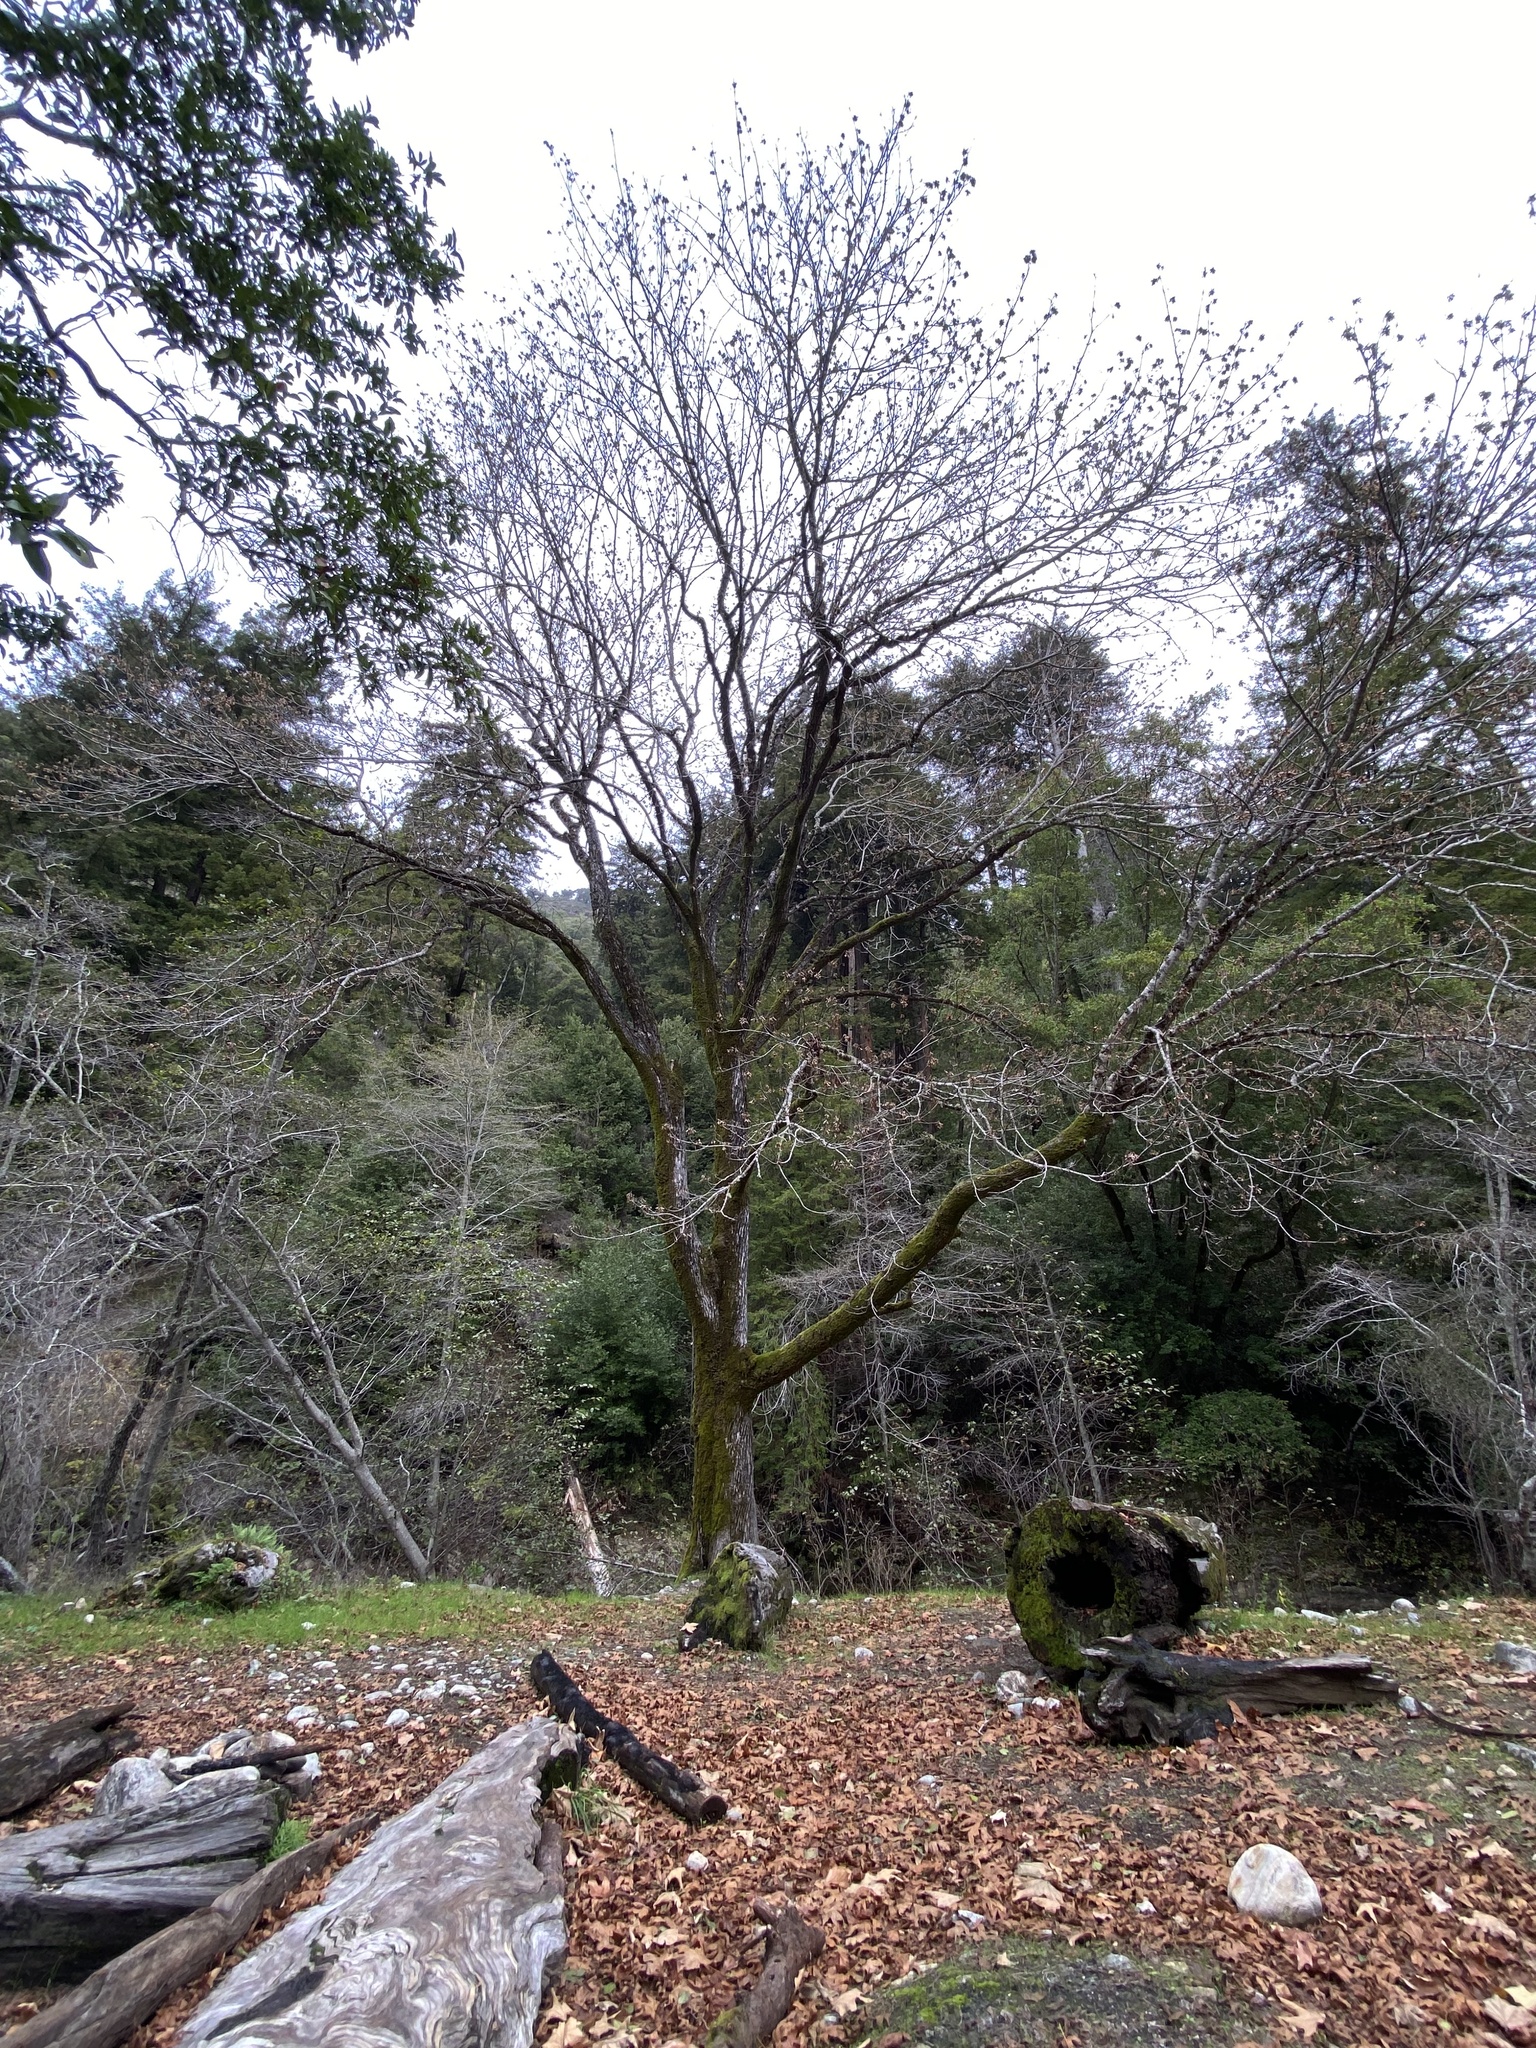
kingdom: Plantae
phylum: Tracheophyta
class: Magnoliopsida
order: Sapindales
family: Sapindaceae
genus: Acer
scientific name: Acer macrophyllum
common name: Oregon maple
